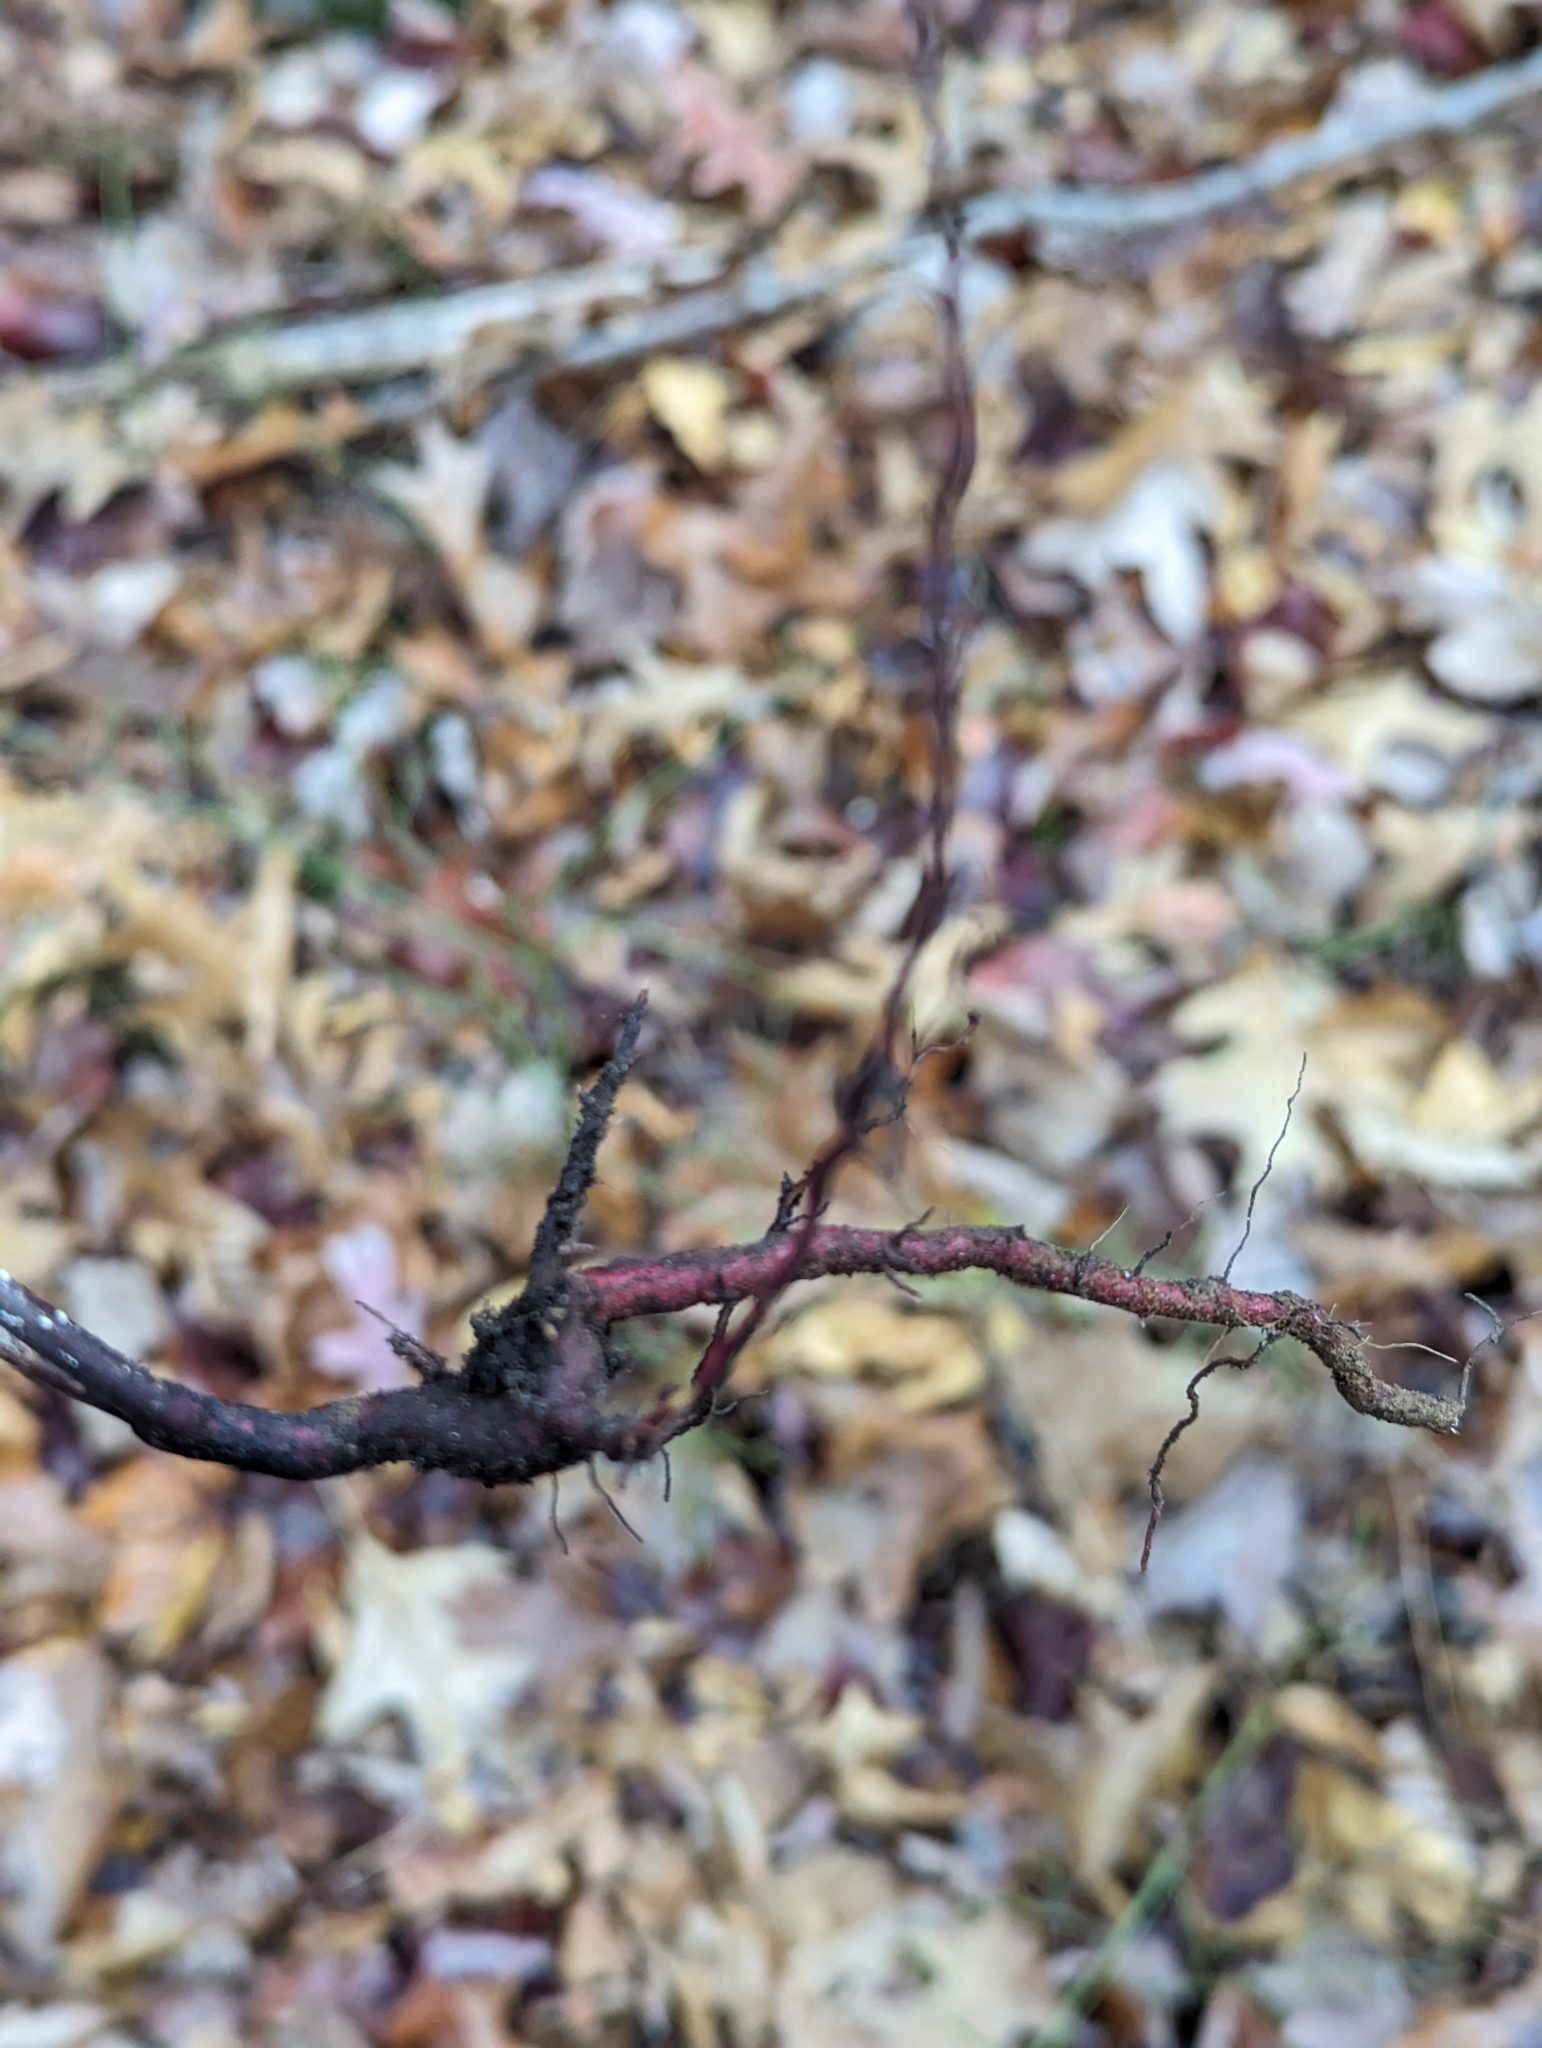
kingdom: Plantae
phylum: Tracheophyta
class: Magnoliopsida
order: Rosales
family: Rhamnaceae
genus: Frangula
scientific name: Frangula alnus
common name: Alder buckthorn
